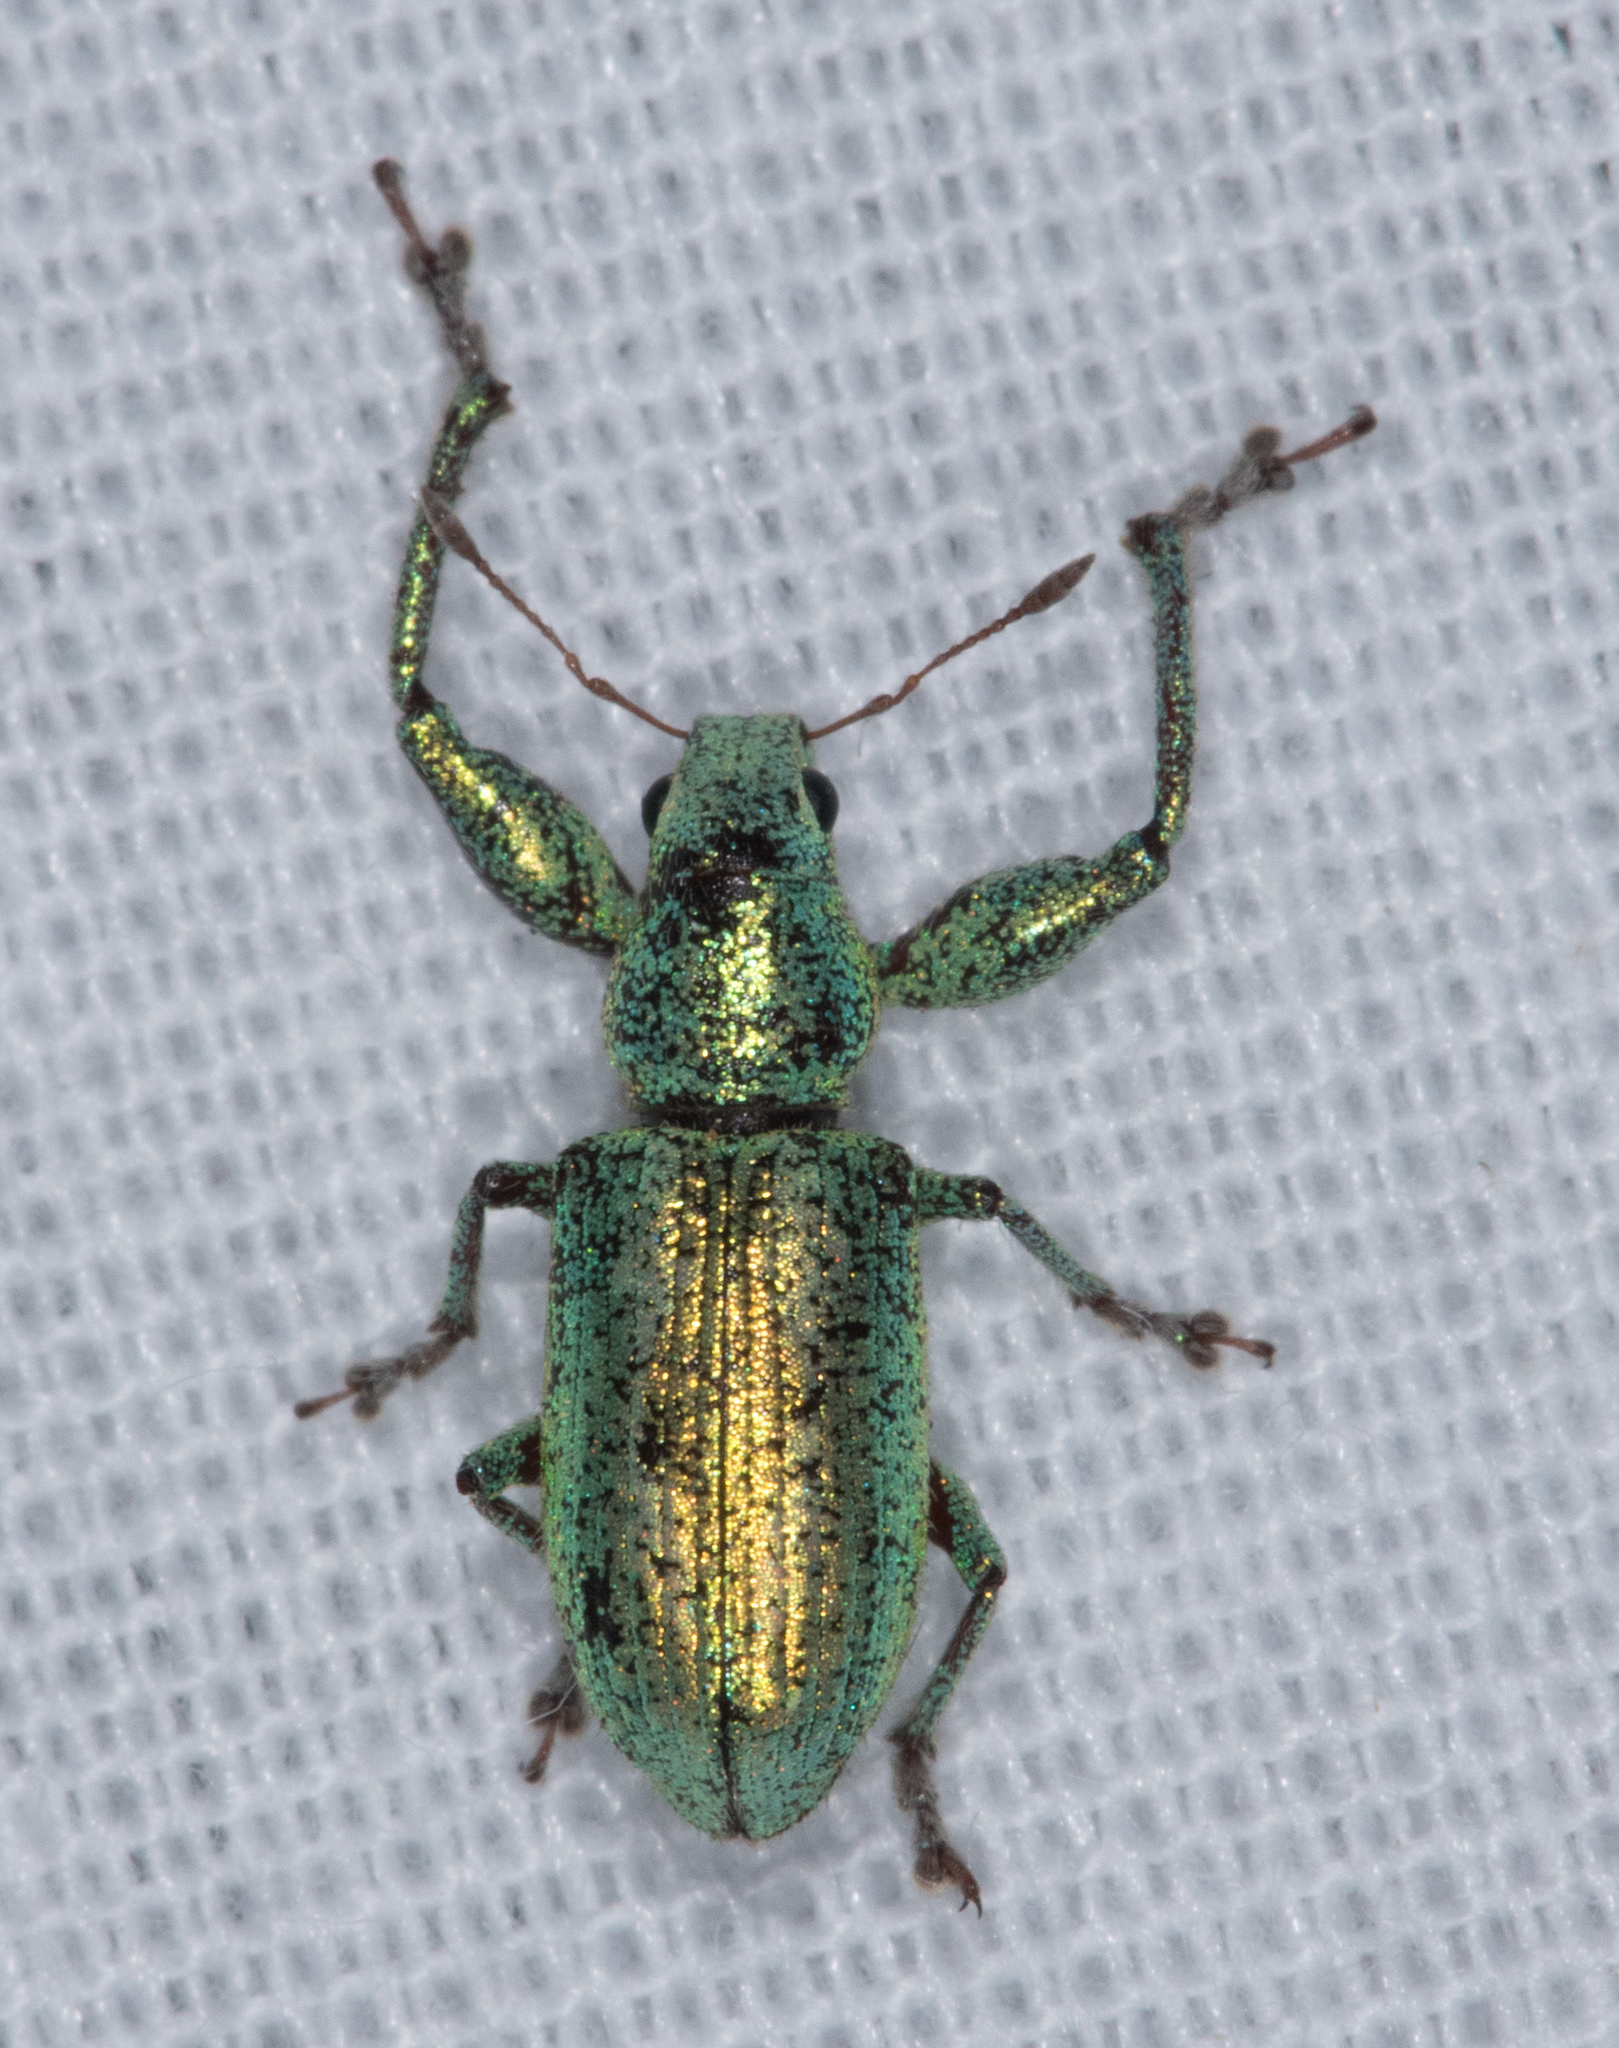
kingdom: Animalia
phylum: Arthropoda
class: Insecta
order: Coleoptera
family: Curculionidae
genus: Hadromeropsis
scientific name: Hadromeropsis opalina
